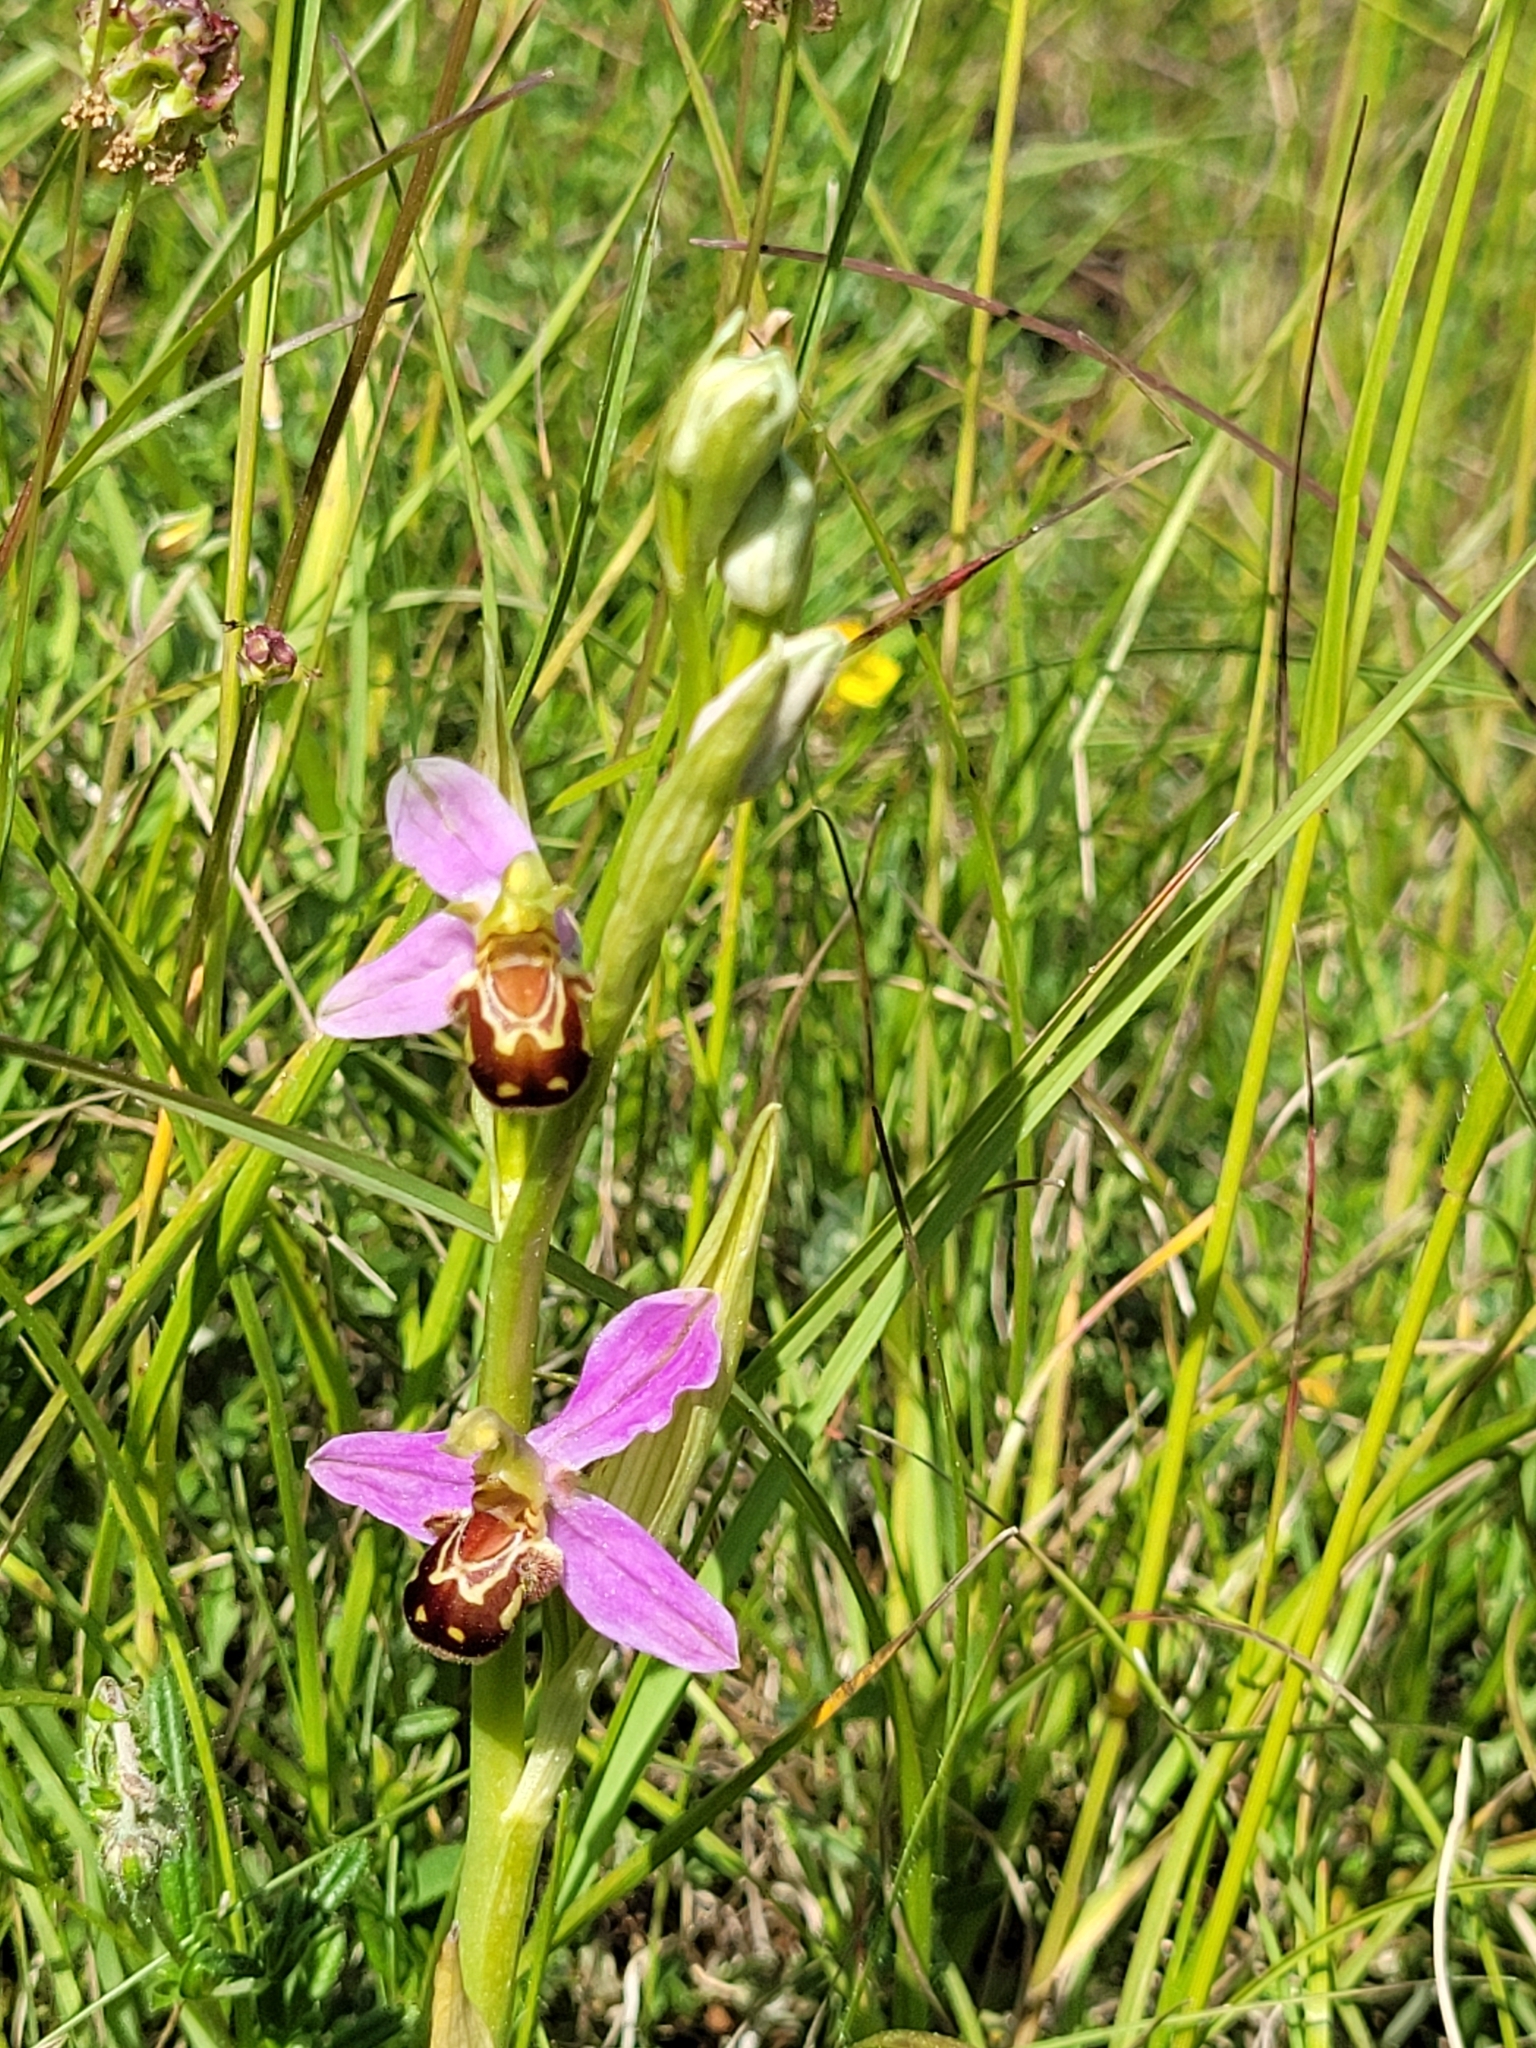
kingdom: Plantae
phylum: Tracheophyta
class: Liliopsida
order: Asparagales
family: Orchidaceae
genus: Ophrys
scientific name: Ophrys apifera
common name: Bee orchid
